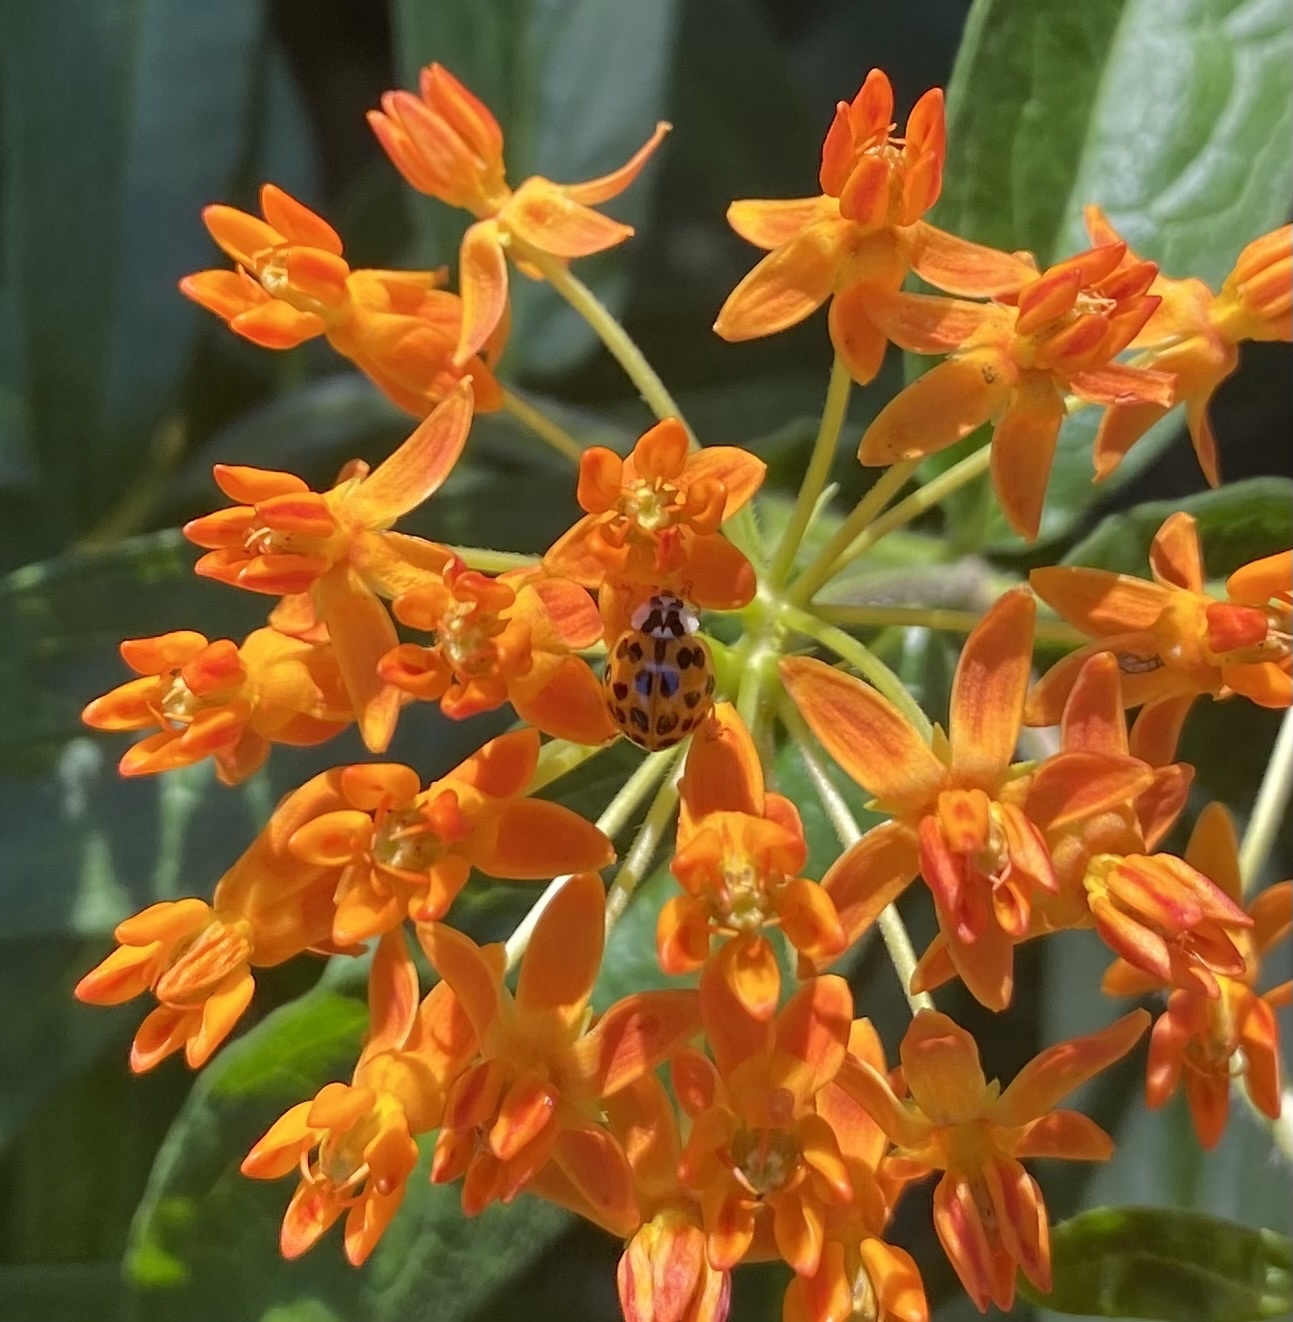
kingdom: Animalia
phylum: Arthropoda
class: Insecta
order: Coleoptera
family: Coccinellidae
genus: Harmonia
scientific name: Harmonia axyridis
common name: Harlequin ladybird
